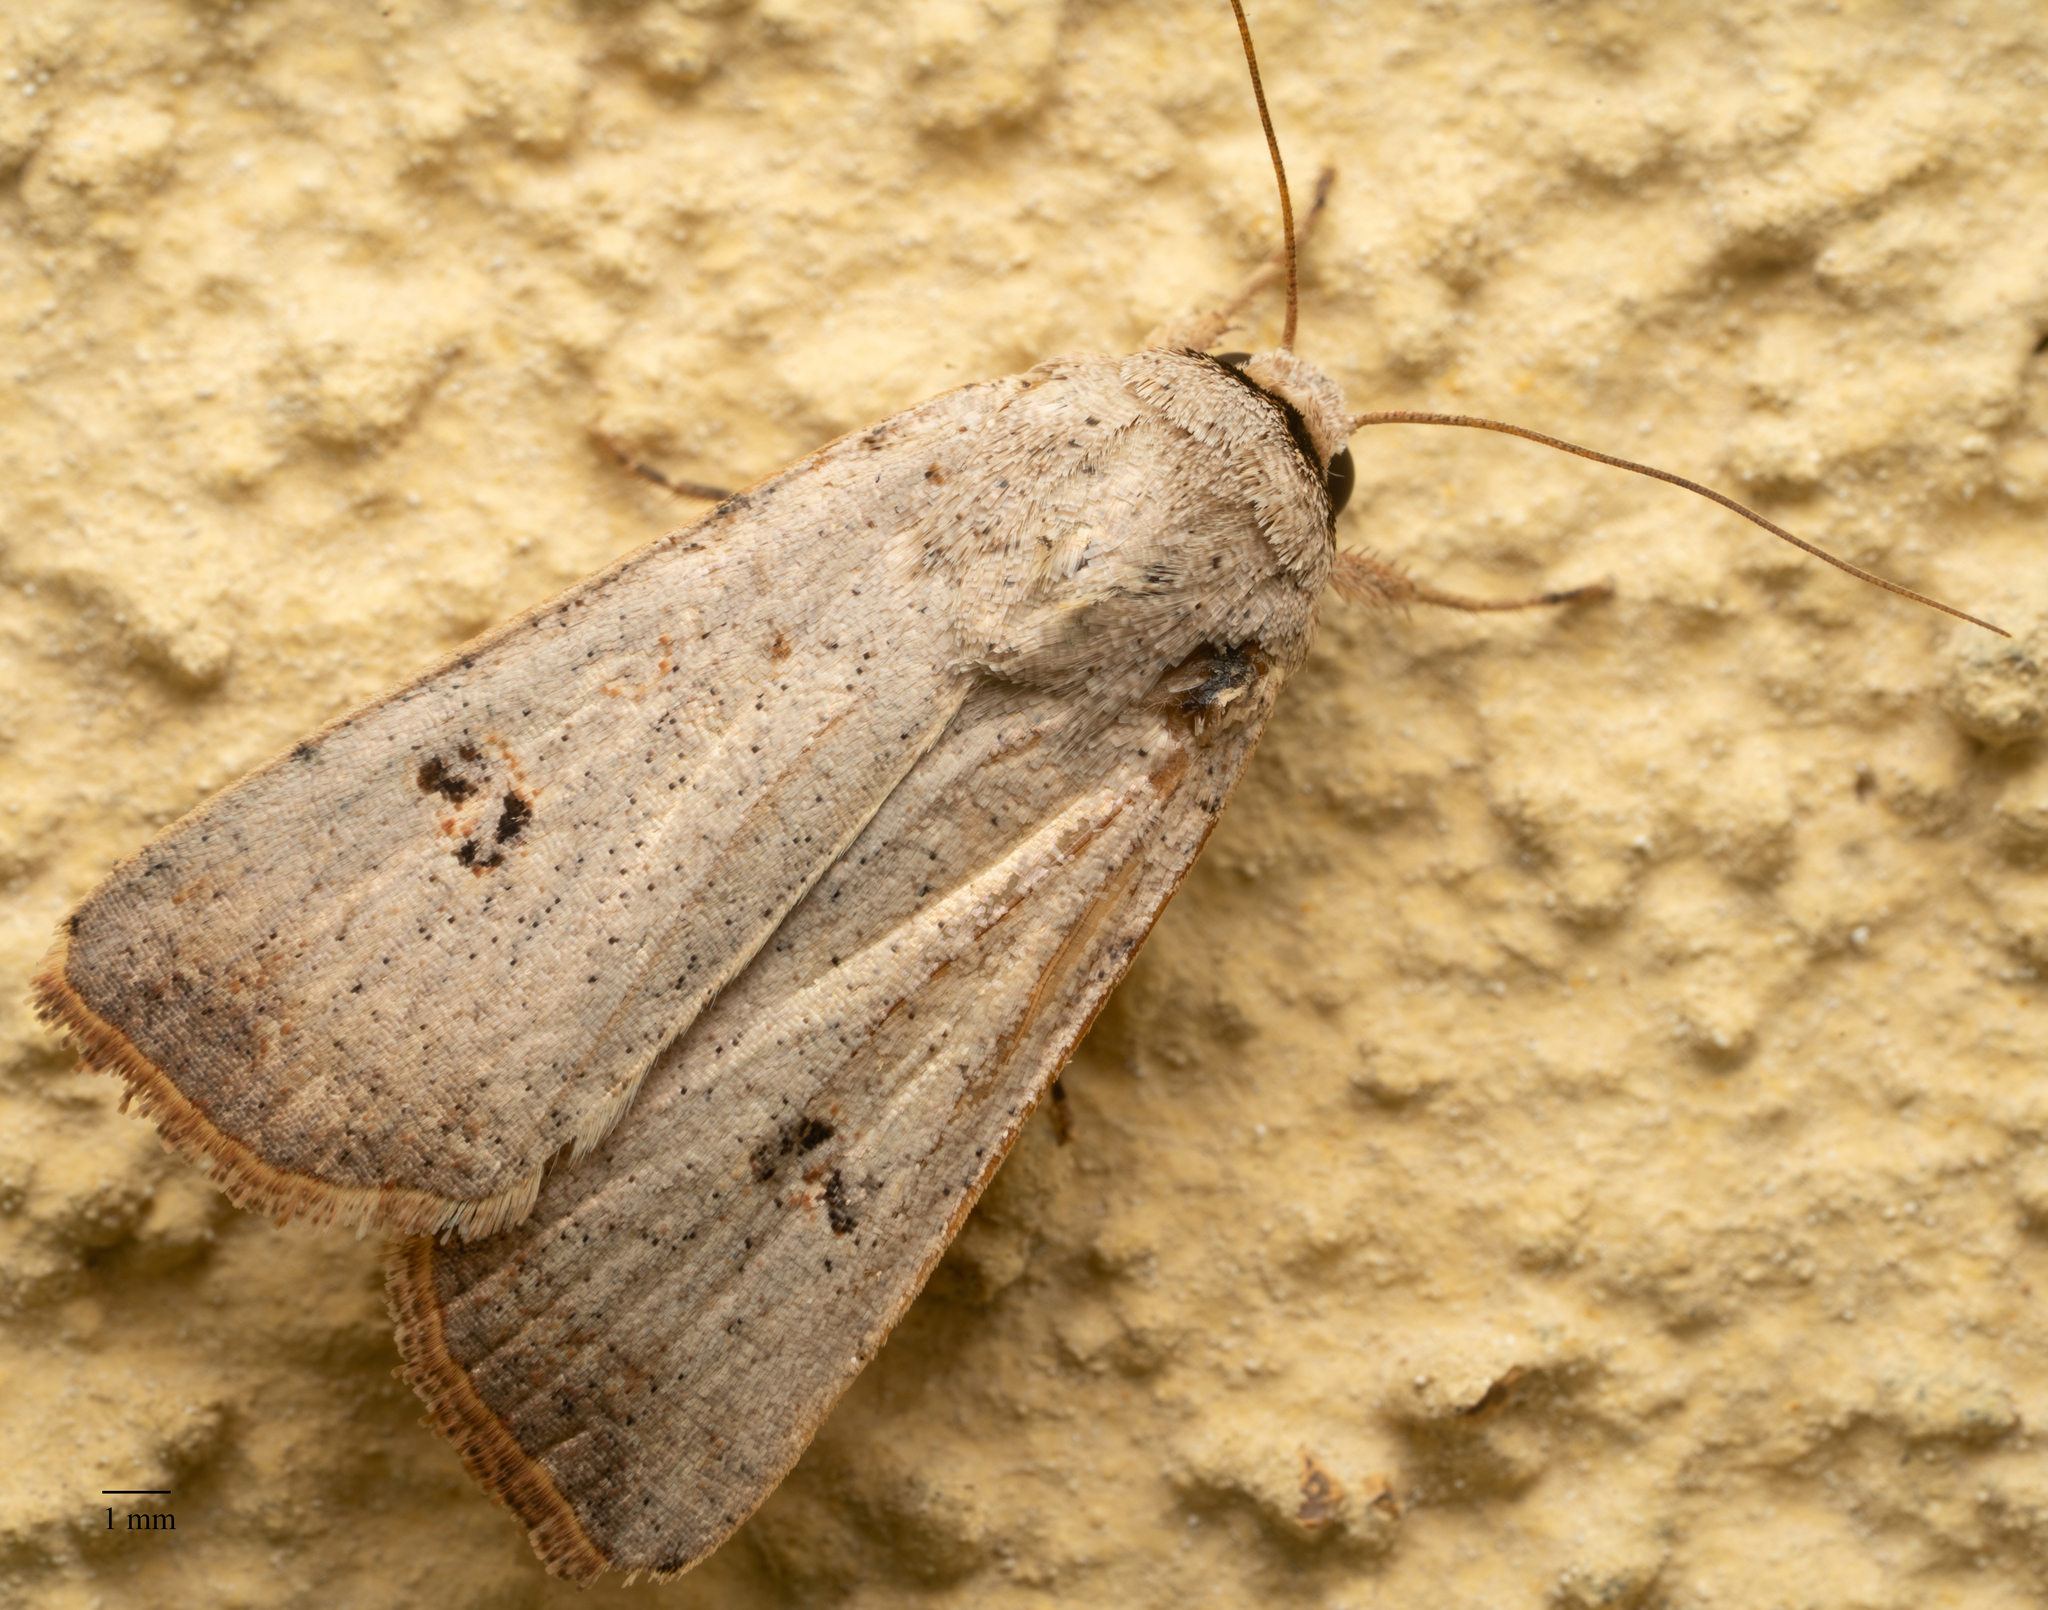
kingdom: Animalia
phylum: Arthropoda
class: Insecta
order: Lepidoptera
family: Noctuidae
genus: Anicla
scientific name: Anicla infecta
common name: Green cutworm
